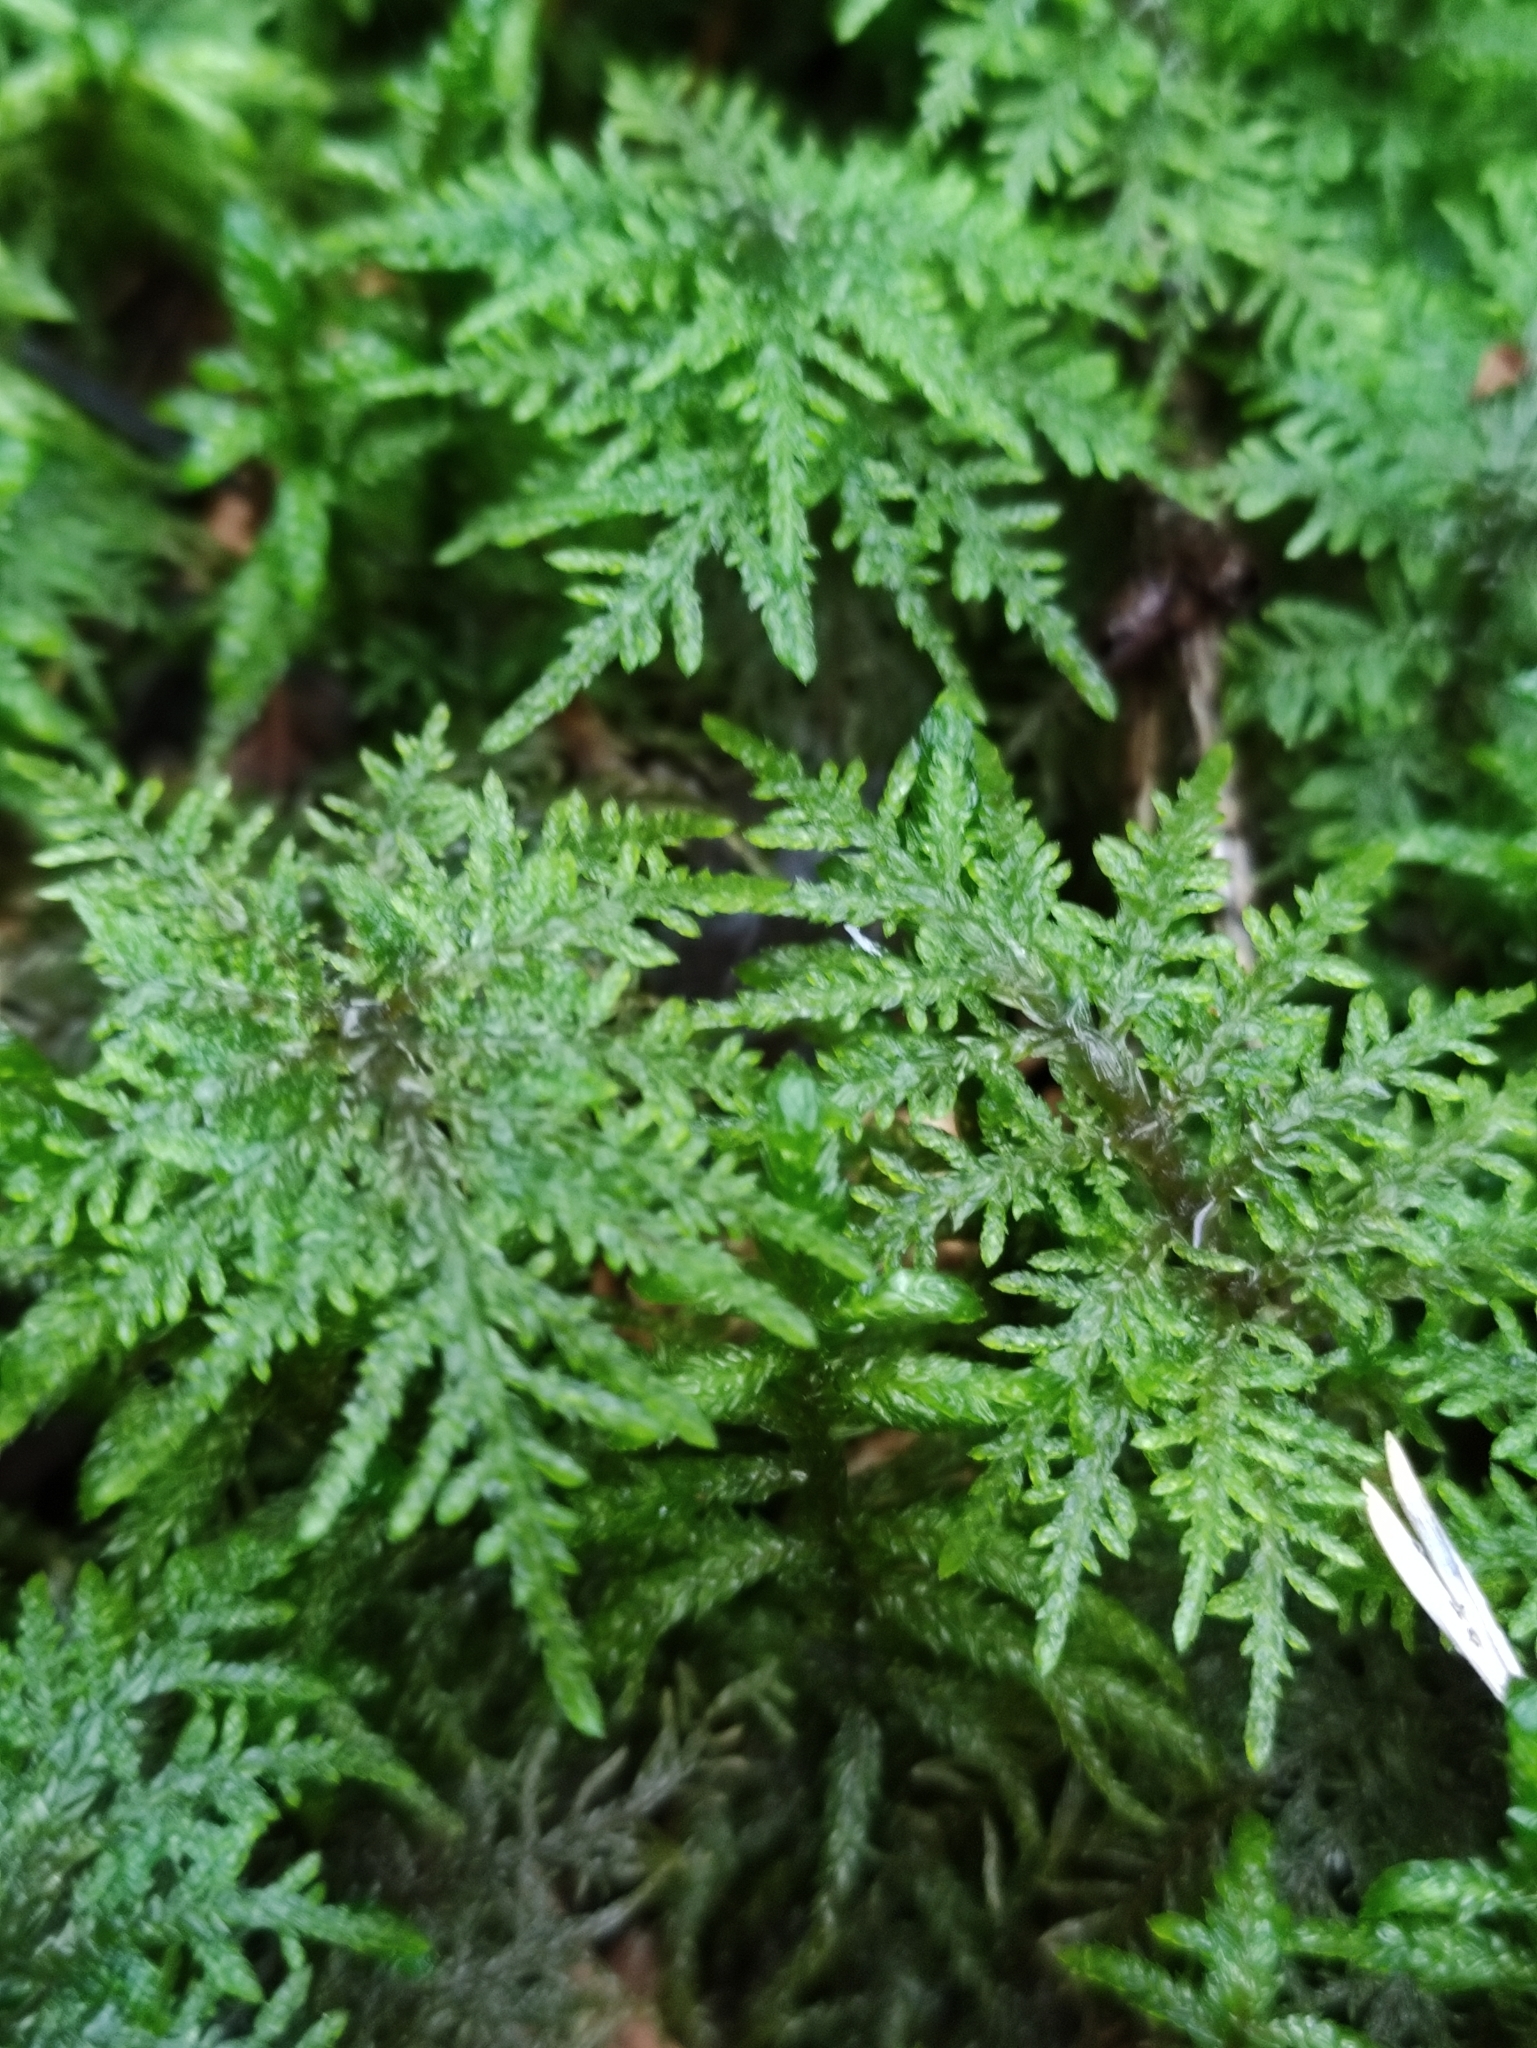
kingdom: Plantae
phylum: Bryophyta
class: Bryopsida
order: Hypnales
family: Hylocomiaceae
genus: Hylocomium
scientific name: Hylocomium splendens
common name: Stairstep moss
